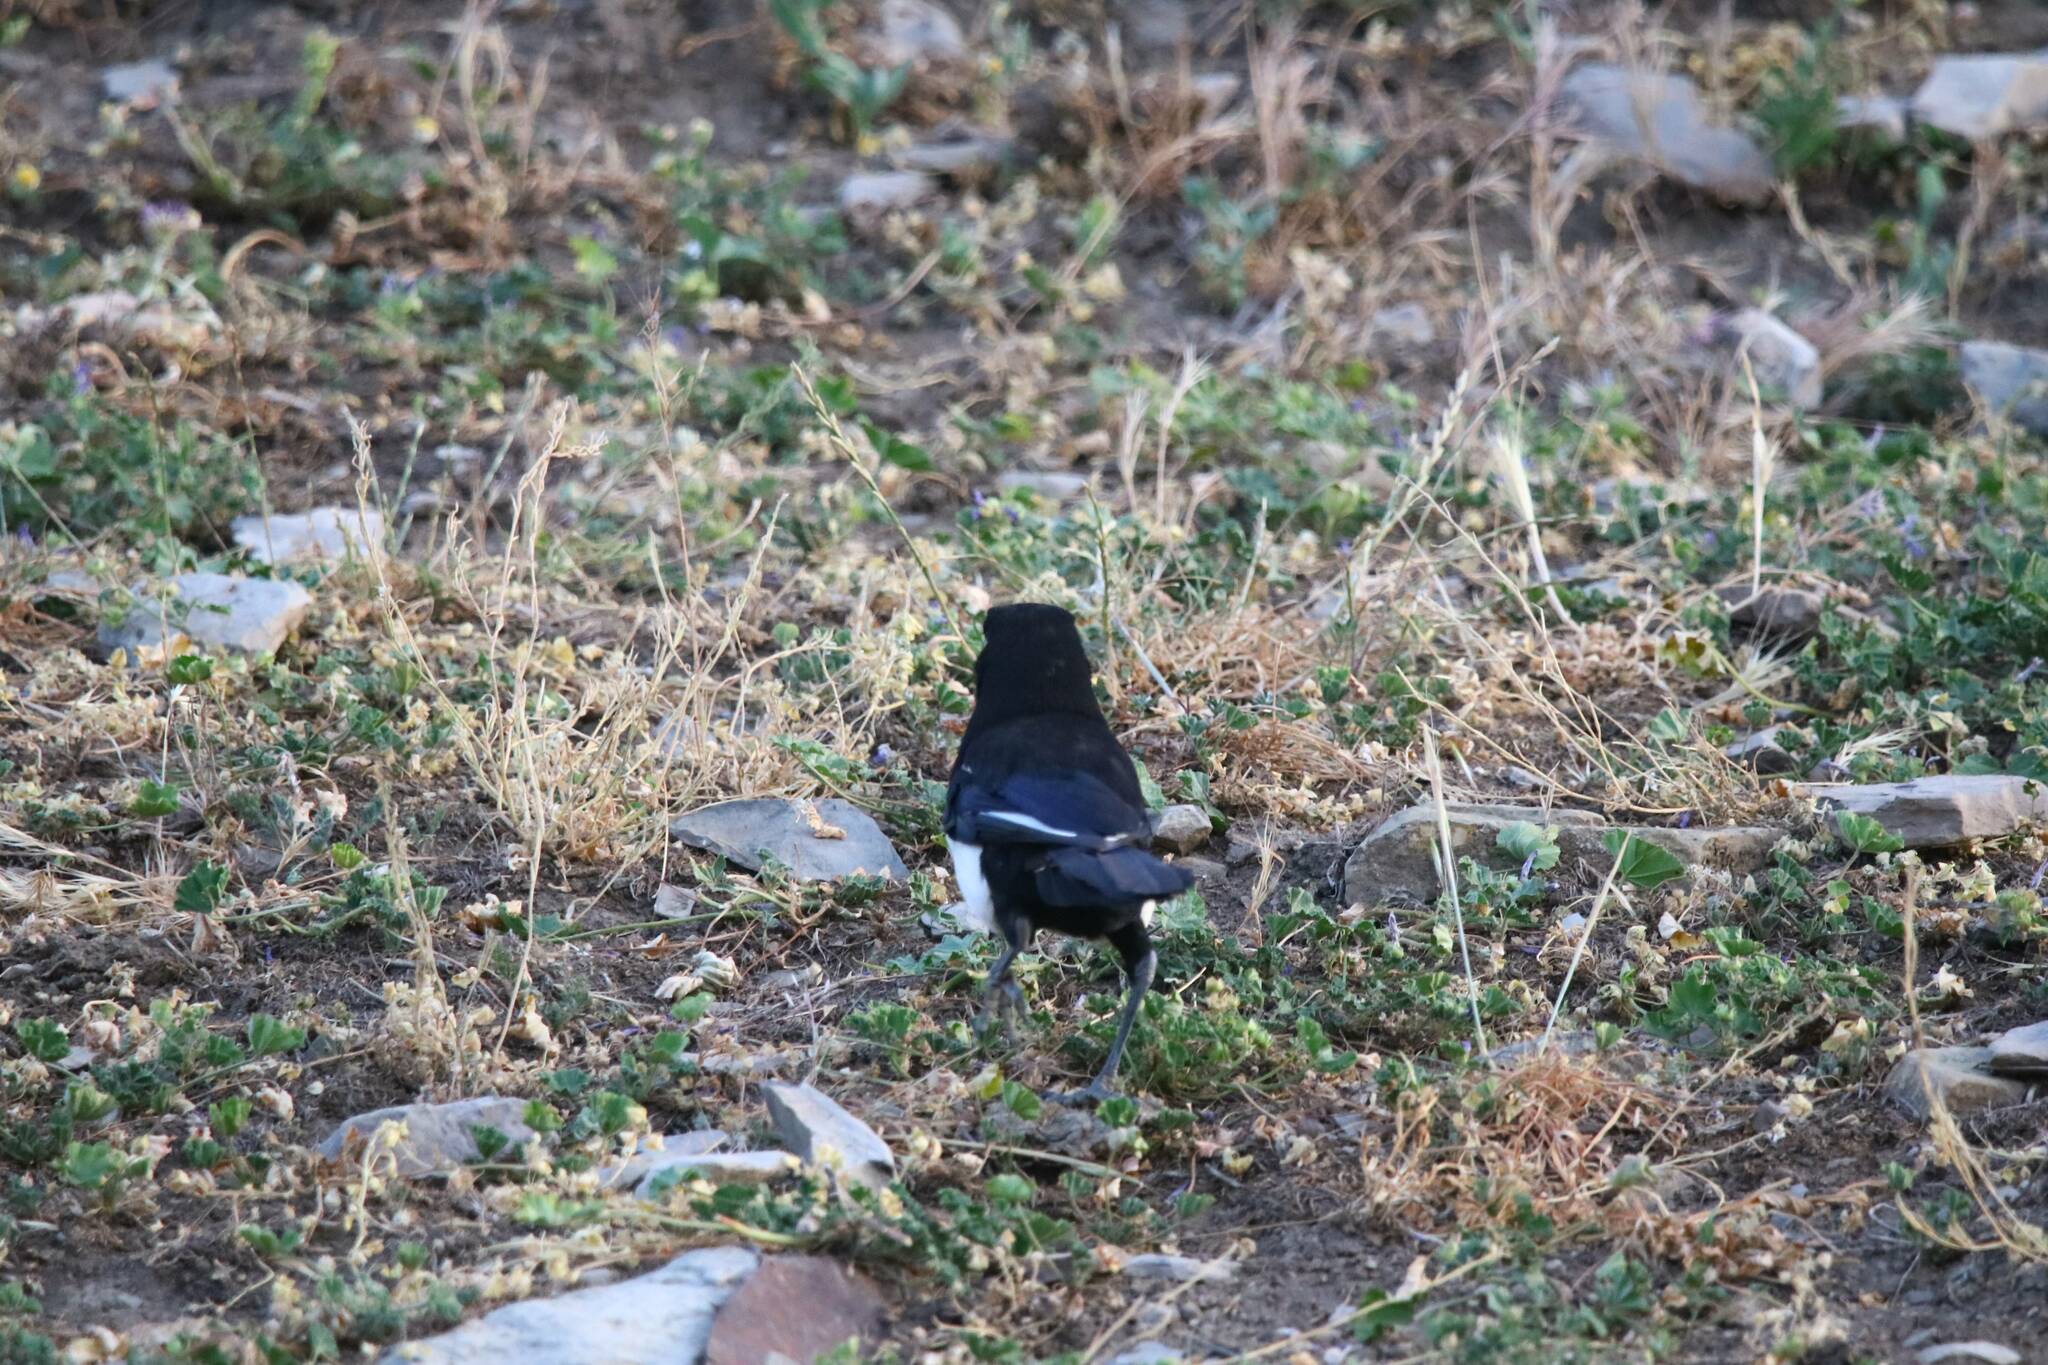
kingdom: Animalia
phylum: Chordata
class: Aves
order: Passeriformes
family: Corvidae
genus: Pica
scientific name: Pica mauritanica
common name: Maghreb magpie
